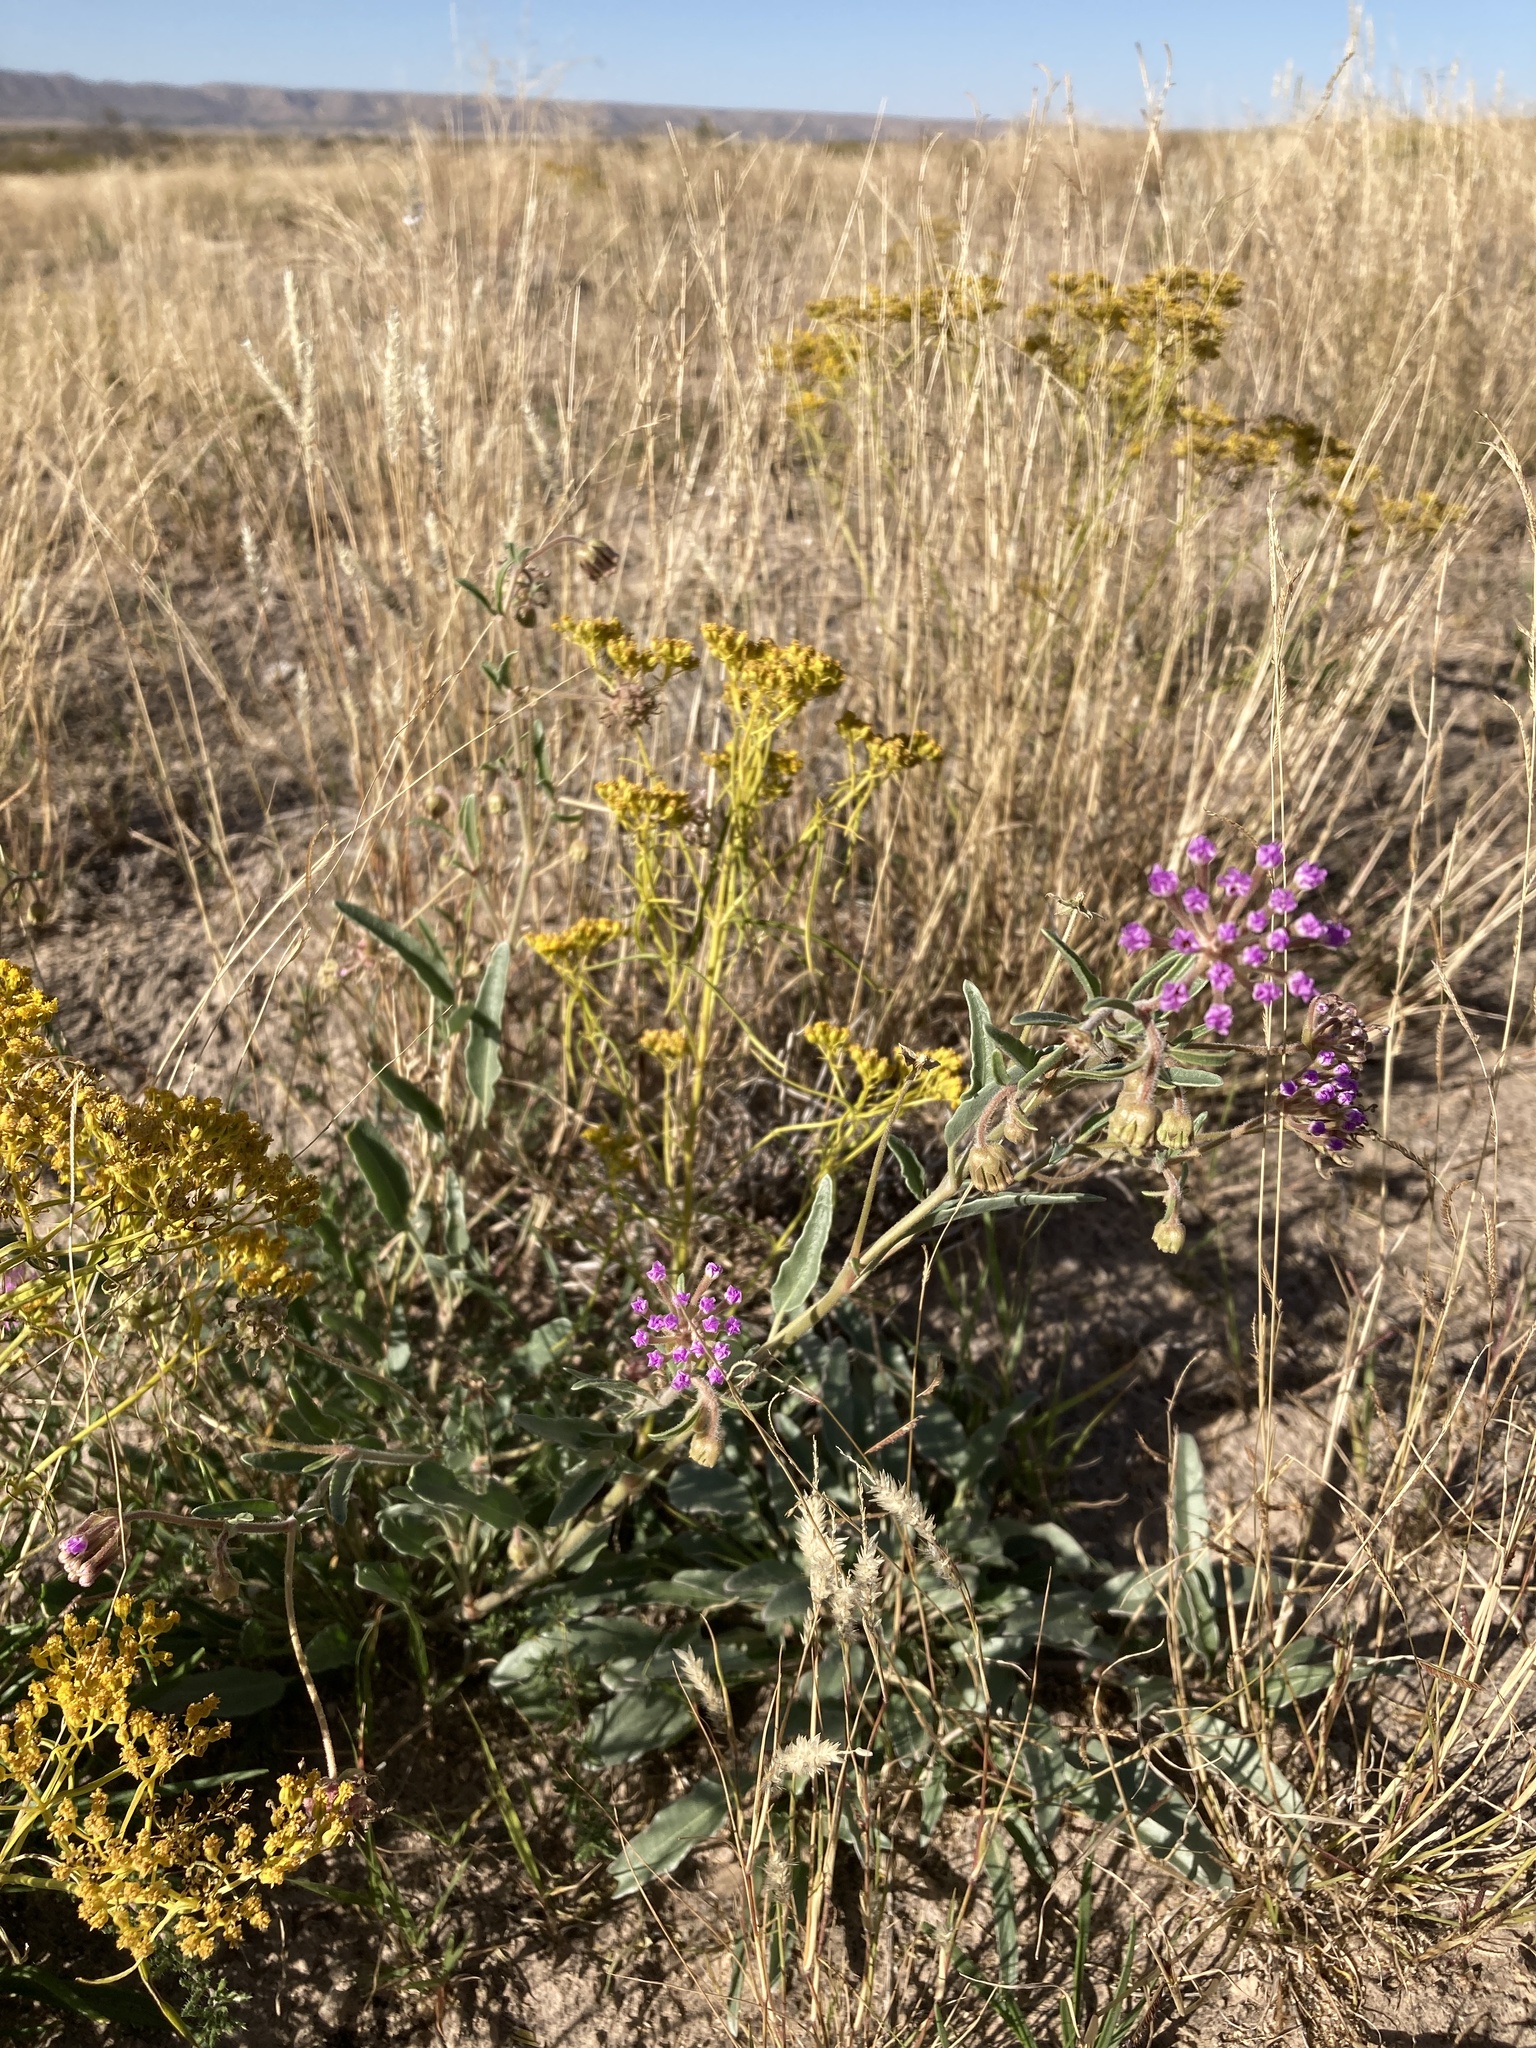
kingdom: Plantae
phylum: Tracheophyta
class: Magnoliopsida
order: Caryophyllales
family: Nyctaginaceae
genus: Abronia
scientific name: Abronia carletonii
